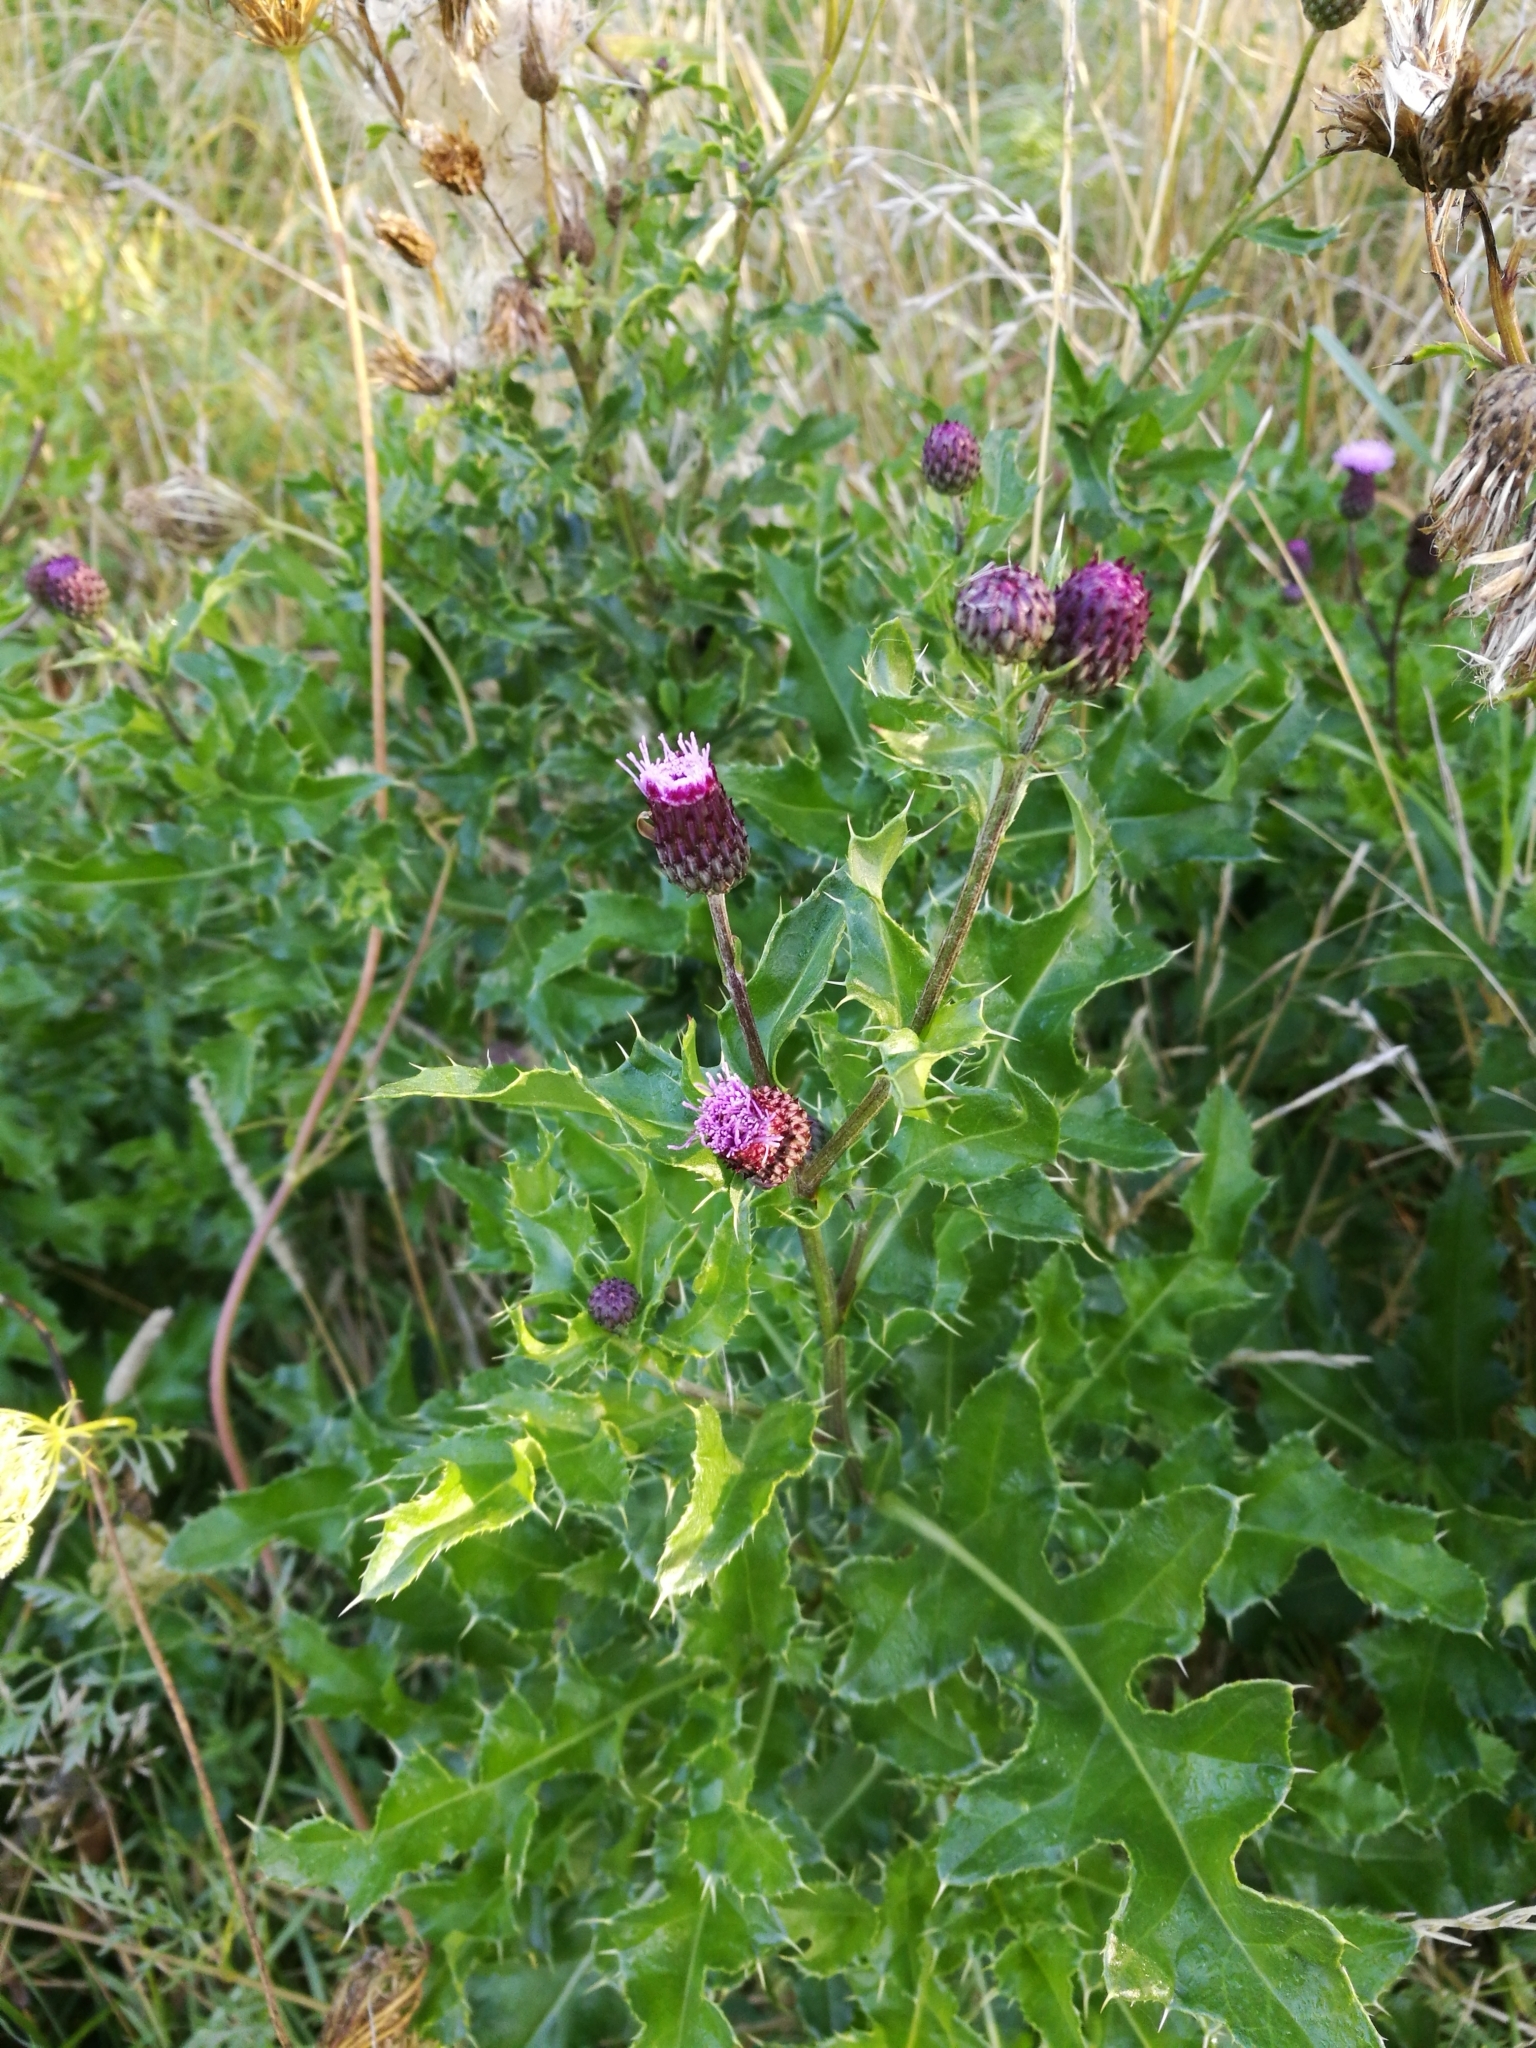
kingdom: Plantae
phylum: Tracheophyta
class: Magnoliopsida
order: Asterales
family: Asteraceae
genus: Cirsium
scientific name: Cirsium arvense
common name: Creeping thistle
